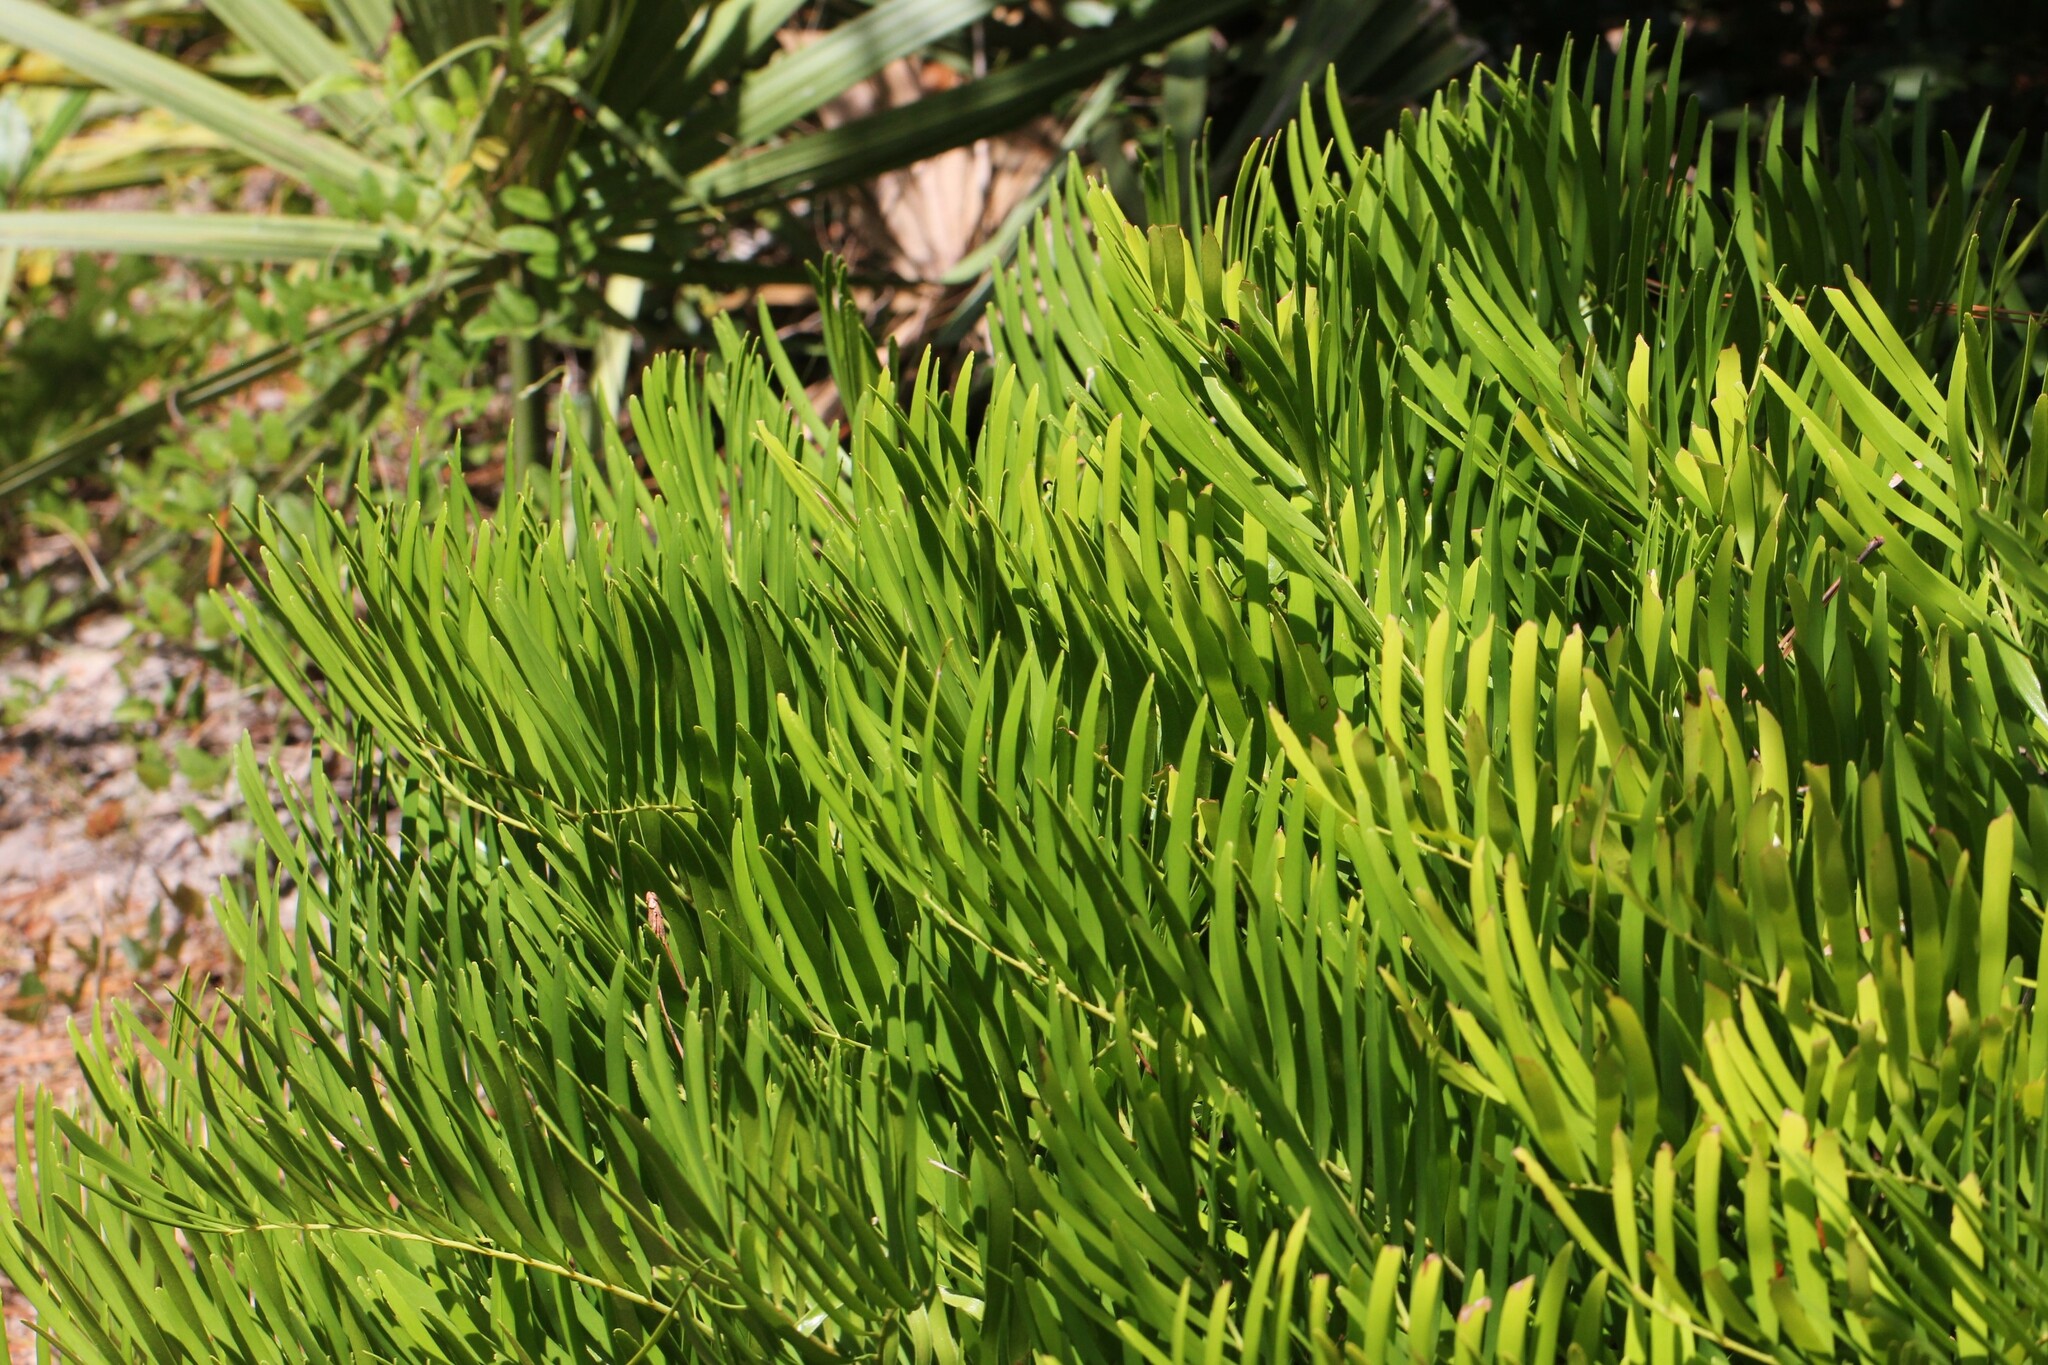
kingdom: Plantae
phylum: Tracheophyta
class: Cycadopsida
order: Cycadales
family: Zamiaceae
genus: Zamia
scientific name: Zamia integrifolia
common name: Florida arrowroot
